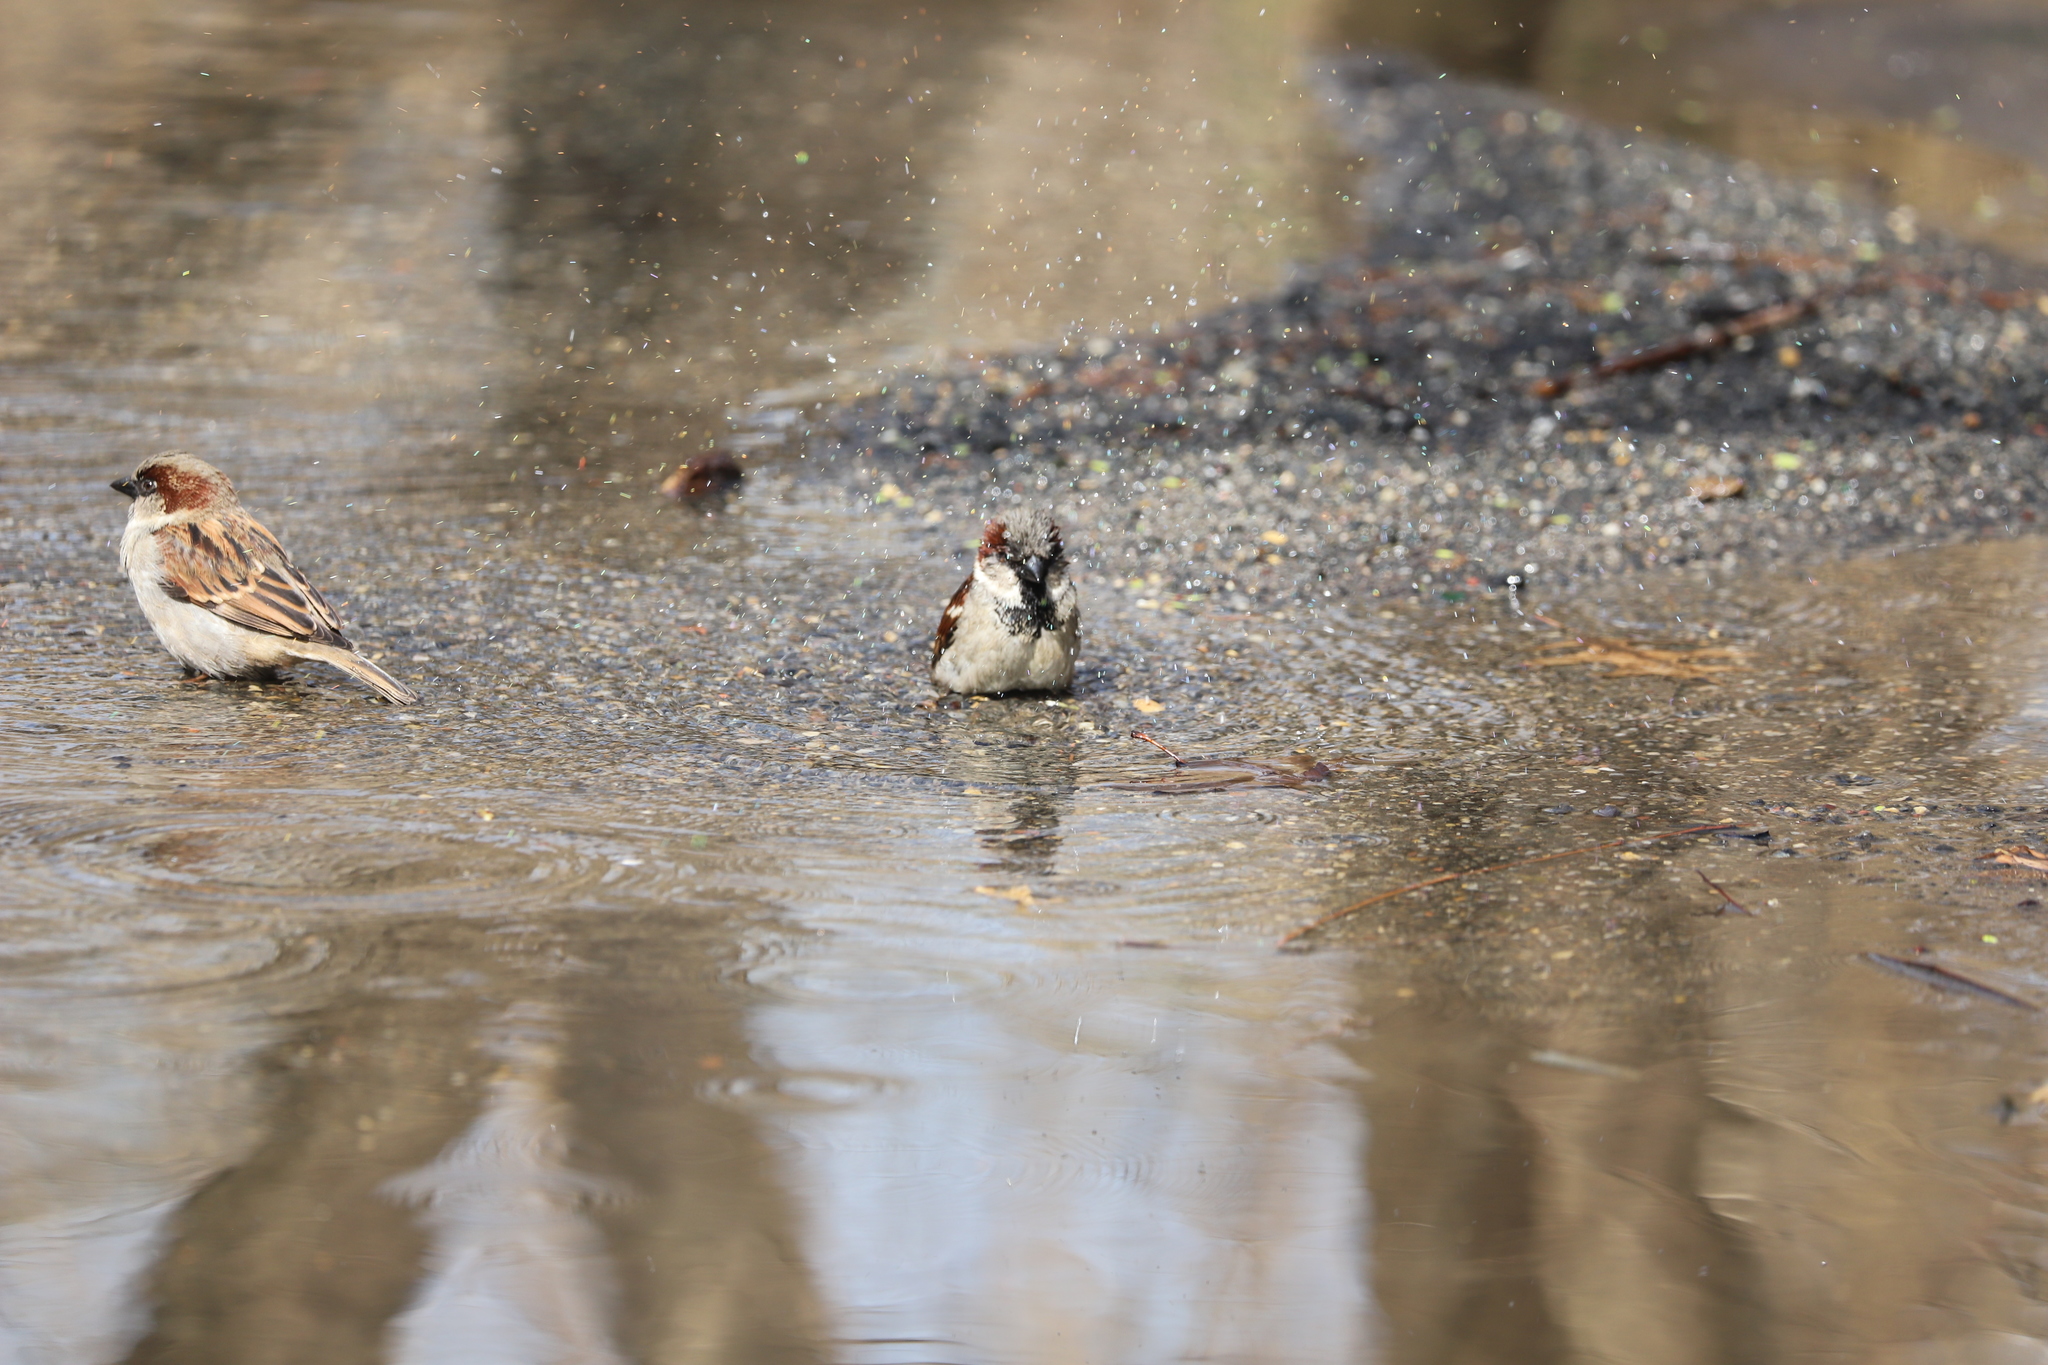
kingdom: Animalia
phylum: Chordata
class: Aves
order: Passeriformes
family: Passeridae
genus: Passer
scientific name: Passer domesticus
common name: House sparrow
